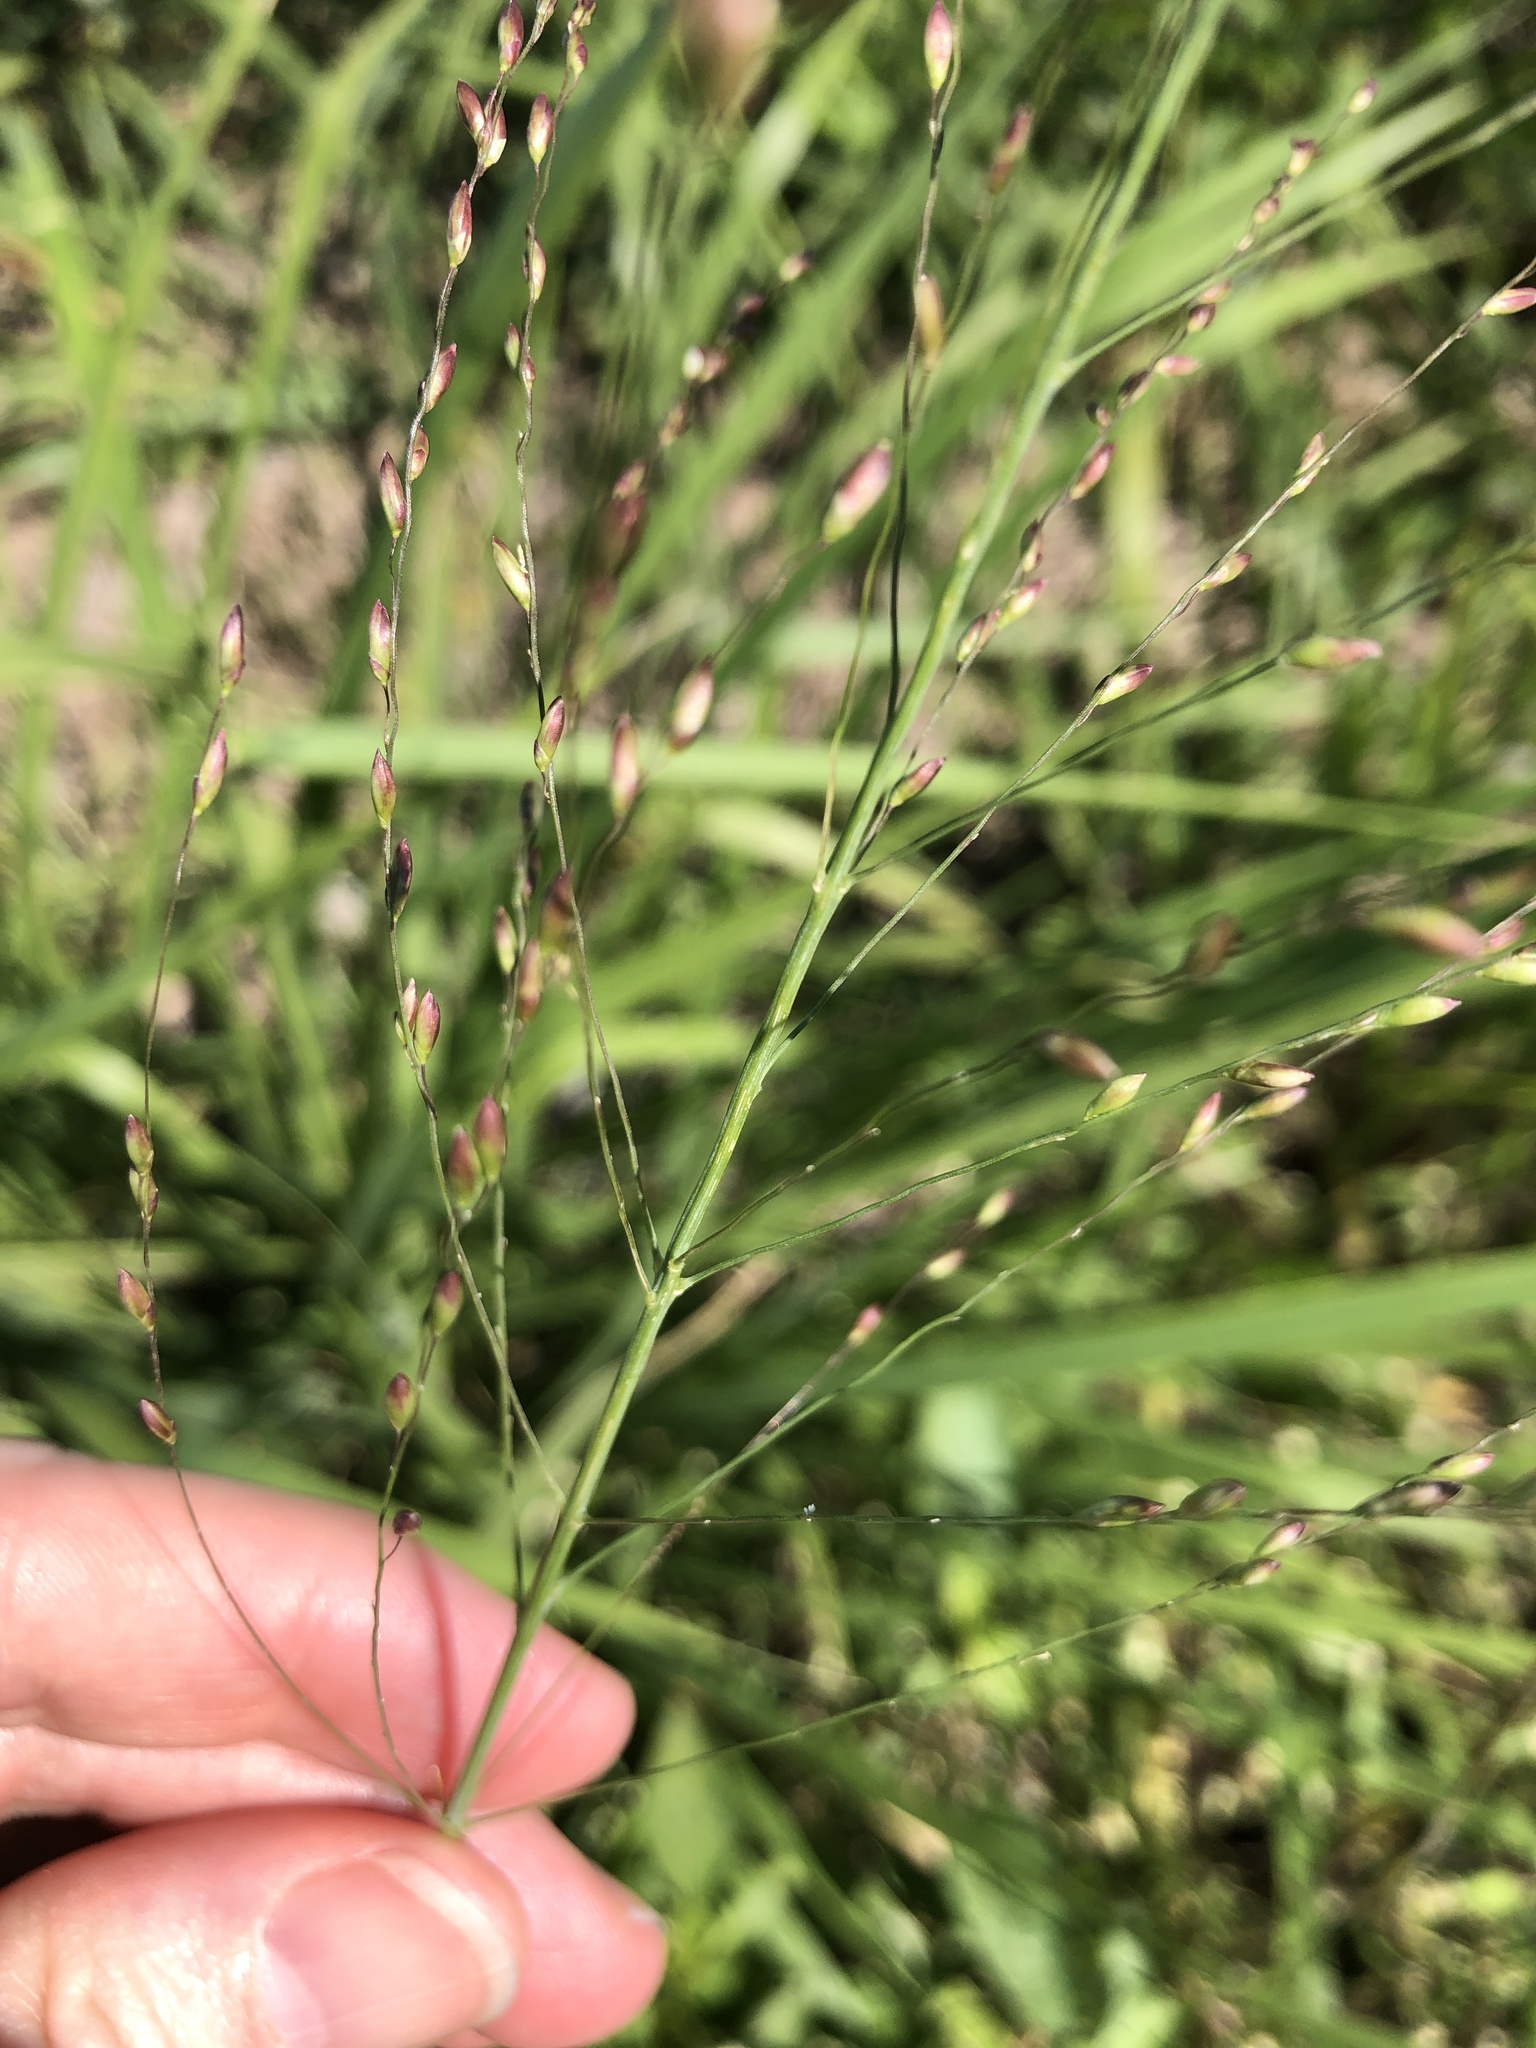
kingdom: Plantae
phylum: Tracheophyta
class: Liliopsida
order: Poales
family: Poaceae
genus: Megathyrsus
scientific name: Megathyrsus maximus
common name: Guineagrass
